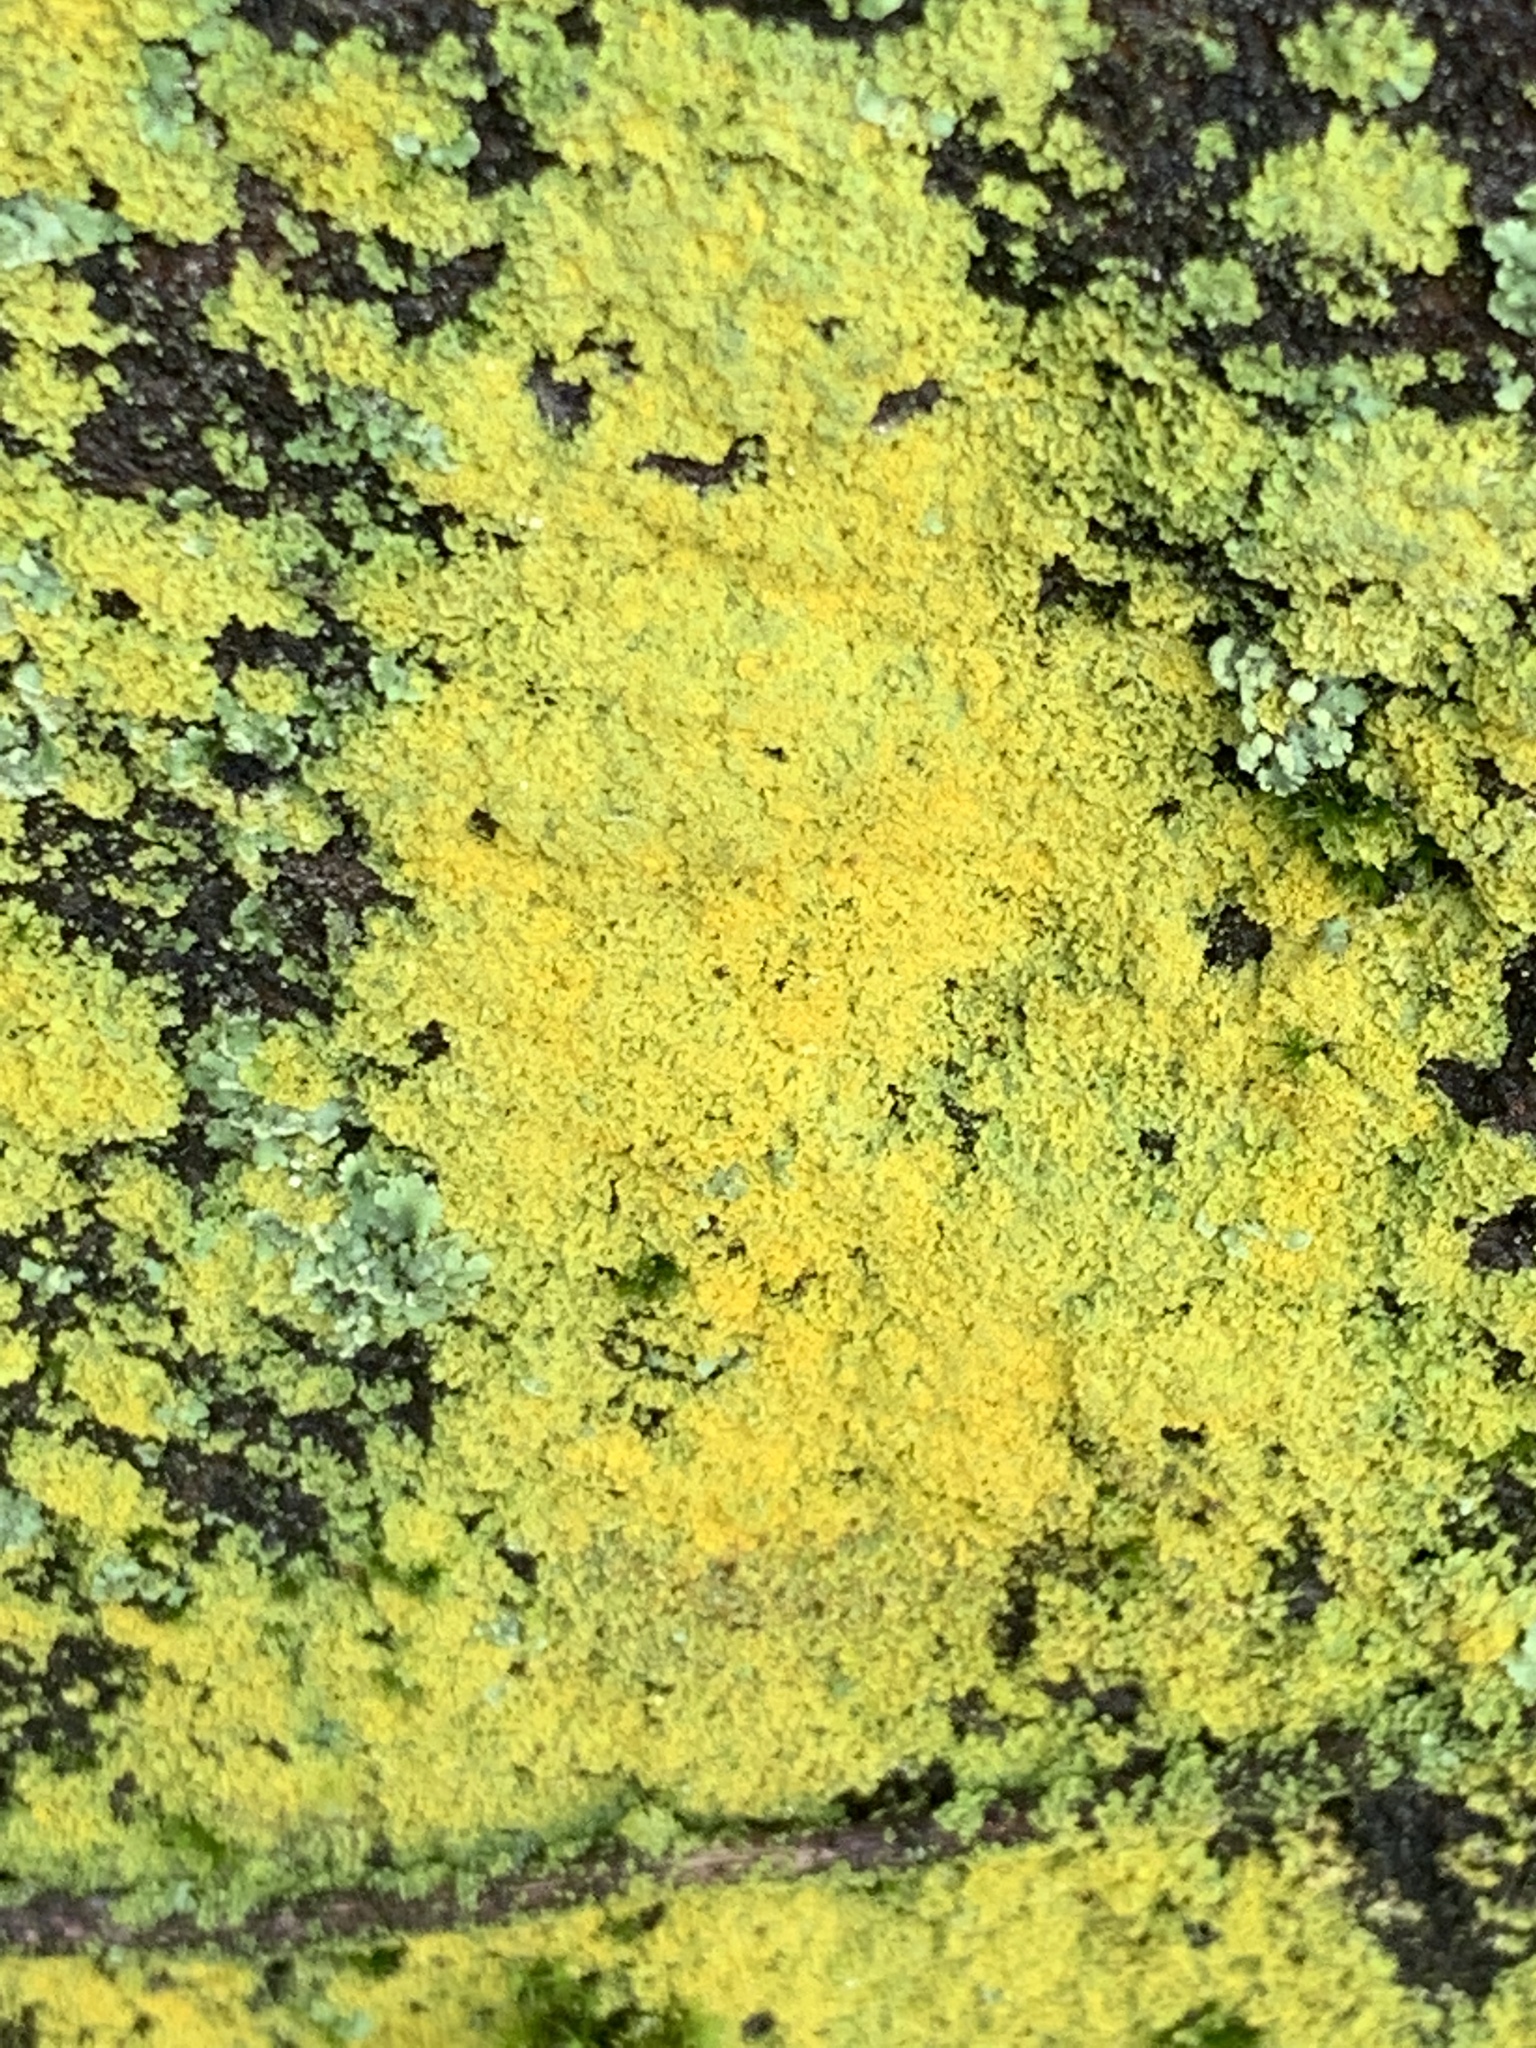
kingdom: Fungi
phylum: Ascomycota
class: Candelariomycetes
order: Candelariales
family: Candelariaceae
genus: Candelaria
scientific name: Candelaria concolor
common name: Candleflame lichen
